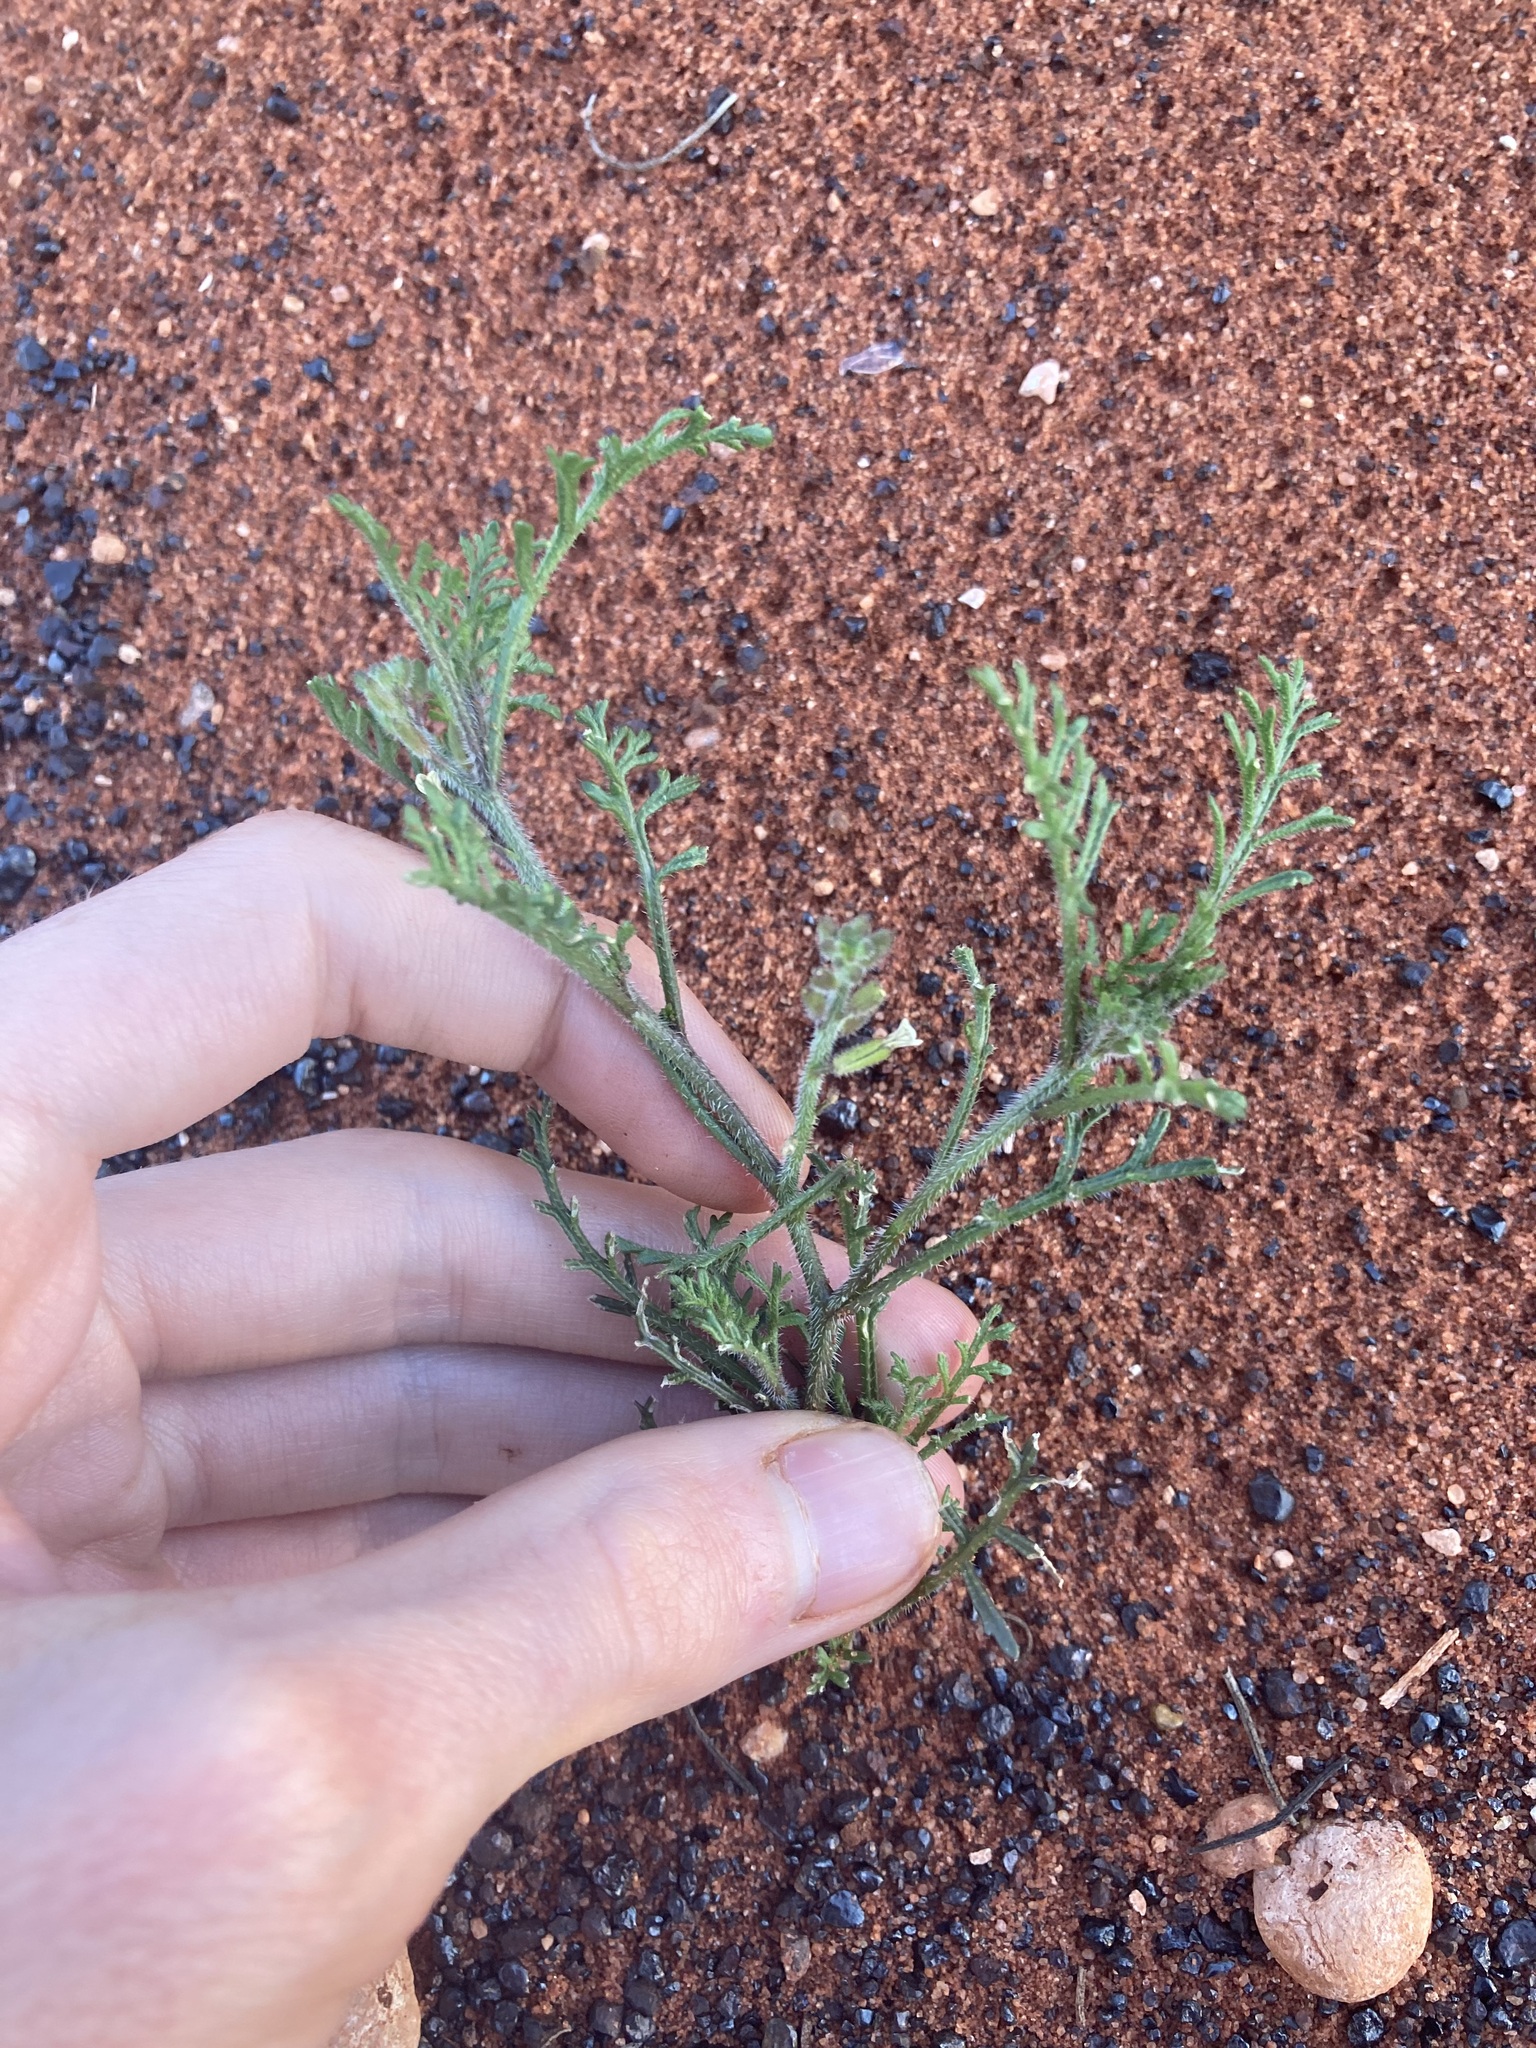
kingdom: Plantae
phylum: Tracheophyta
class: Magnoliopsida
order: Brassicales
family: Brassicaceae
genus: Carrichtera
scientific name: Carrichtera annua
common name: Cress rocket
